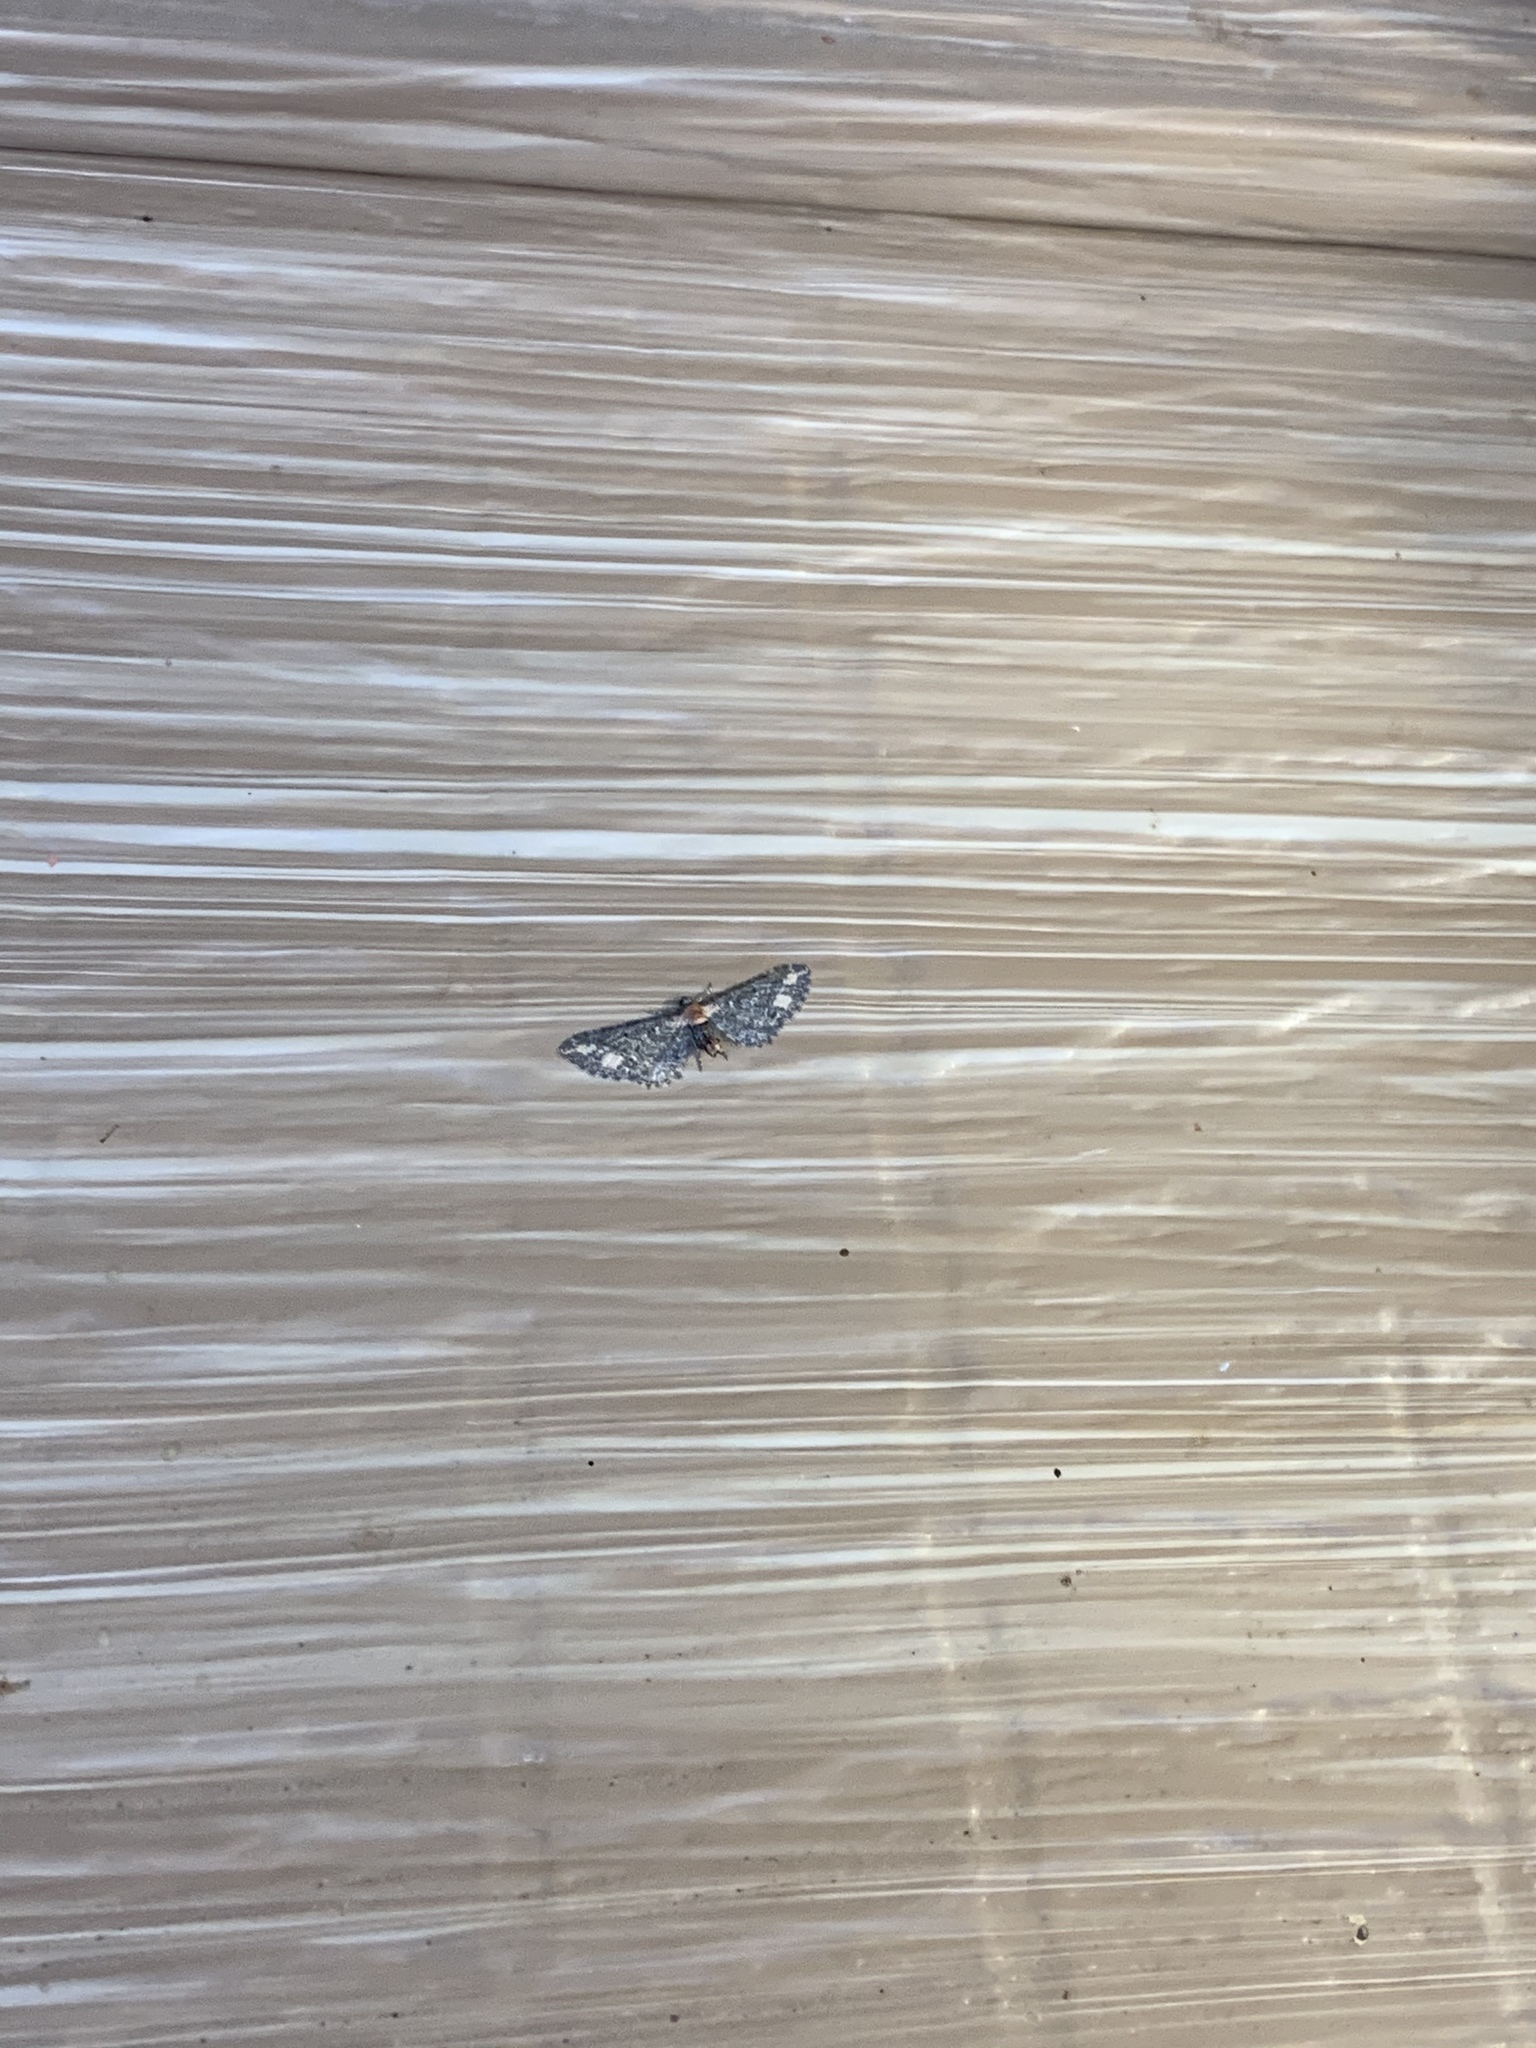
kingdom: Animalia
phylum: Arthropoda
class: Insecta
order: Lepidoptera
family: Geometridae
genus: Eupithecia
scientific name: Eupithecia flavigutta
